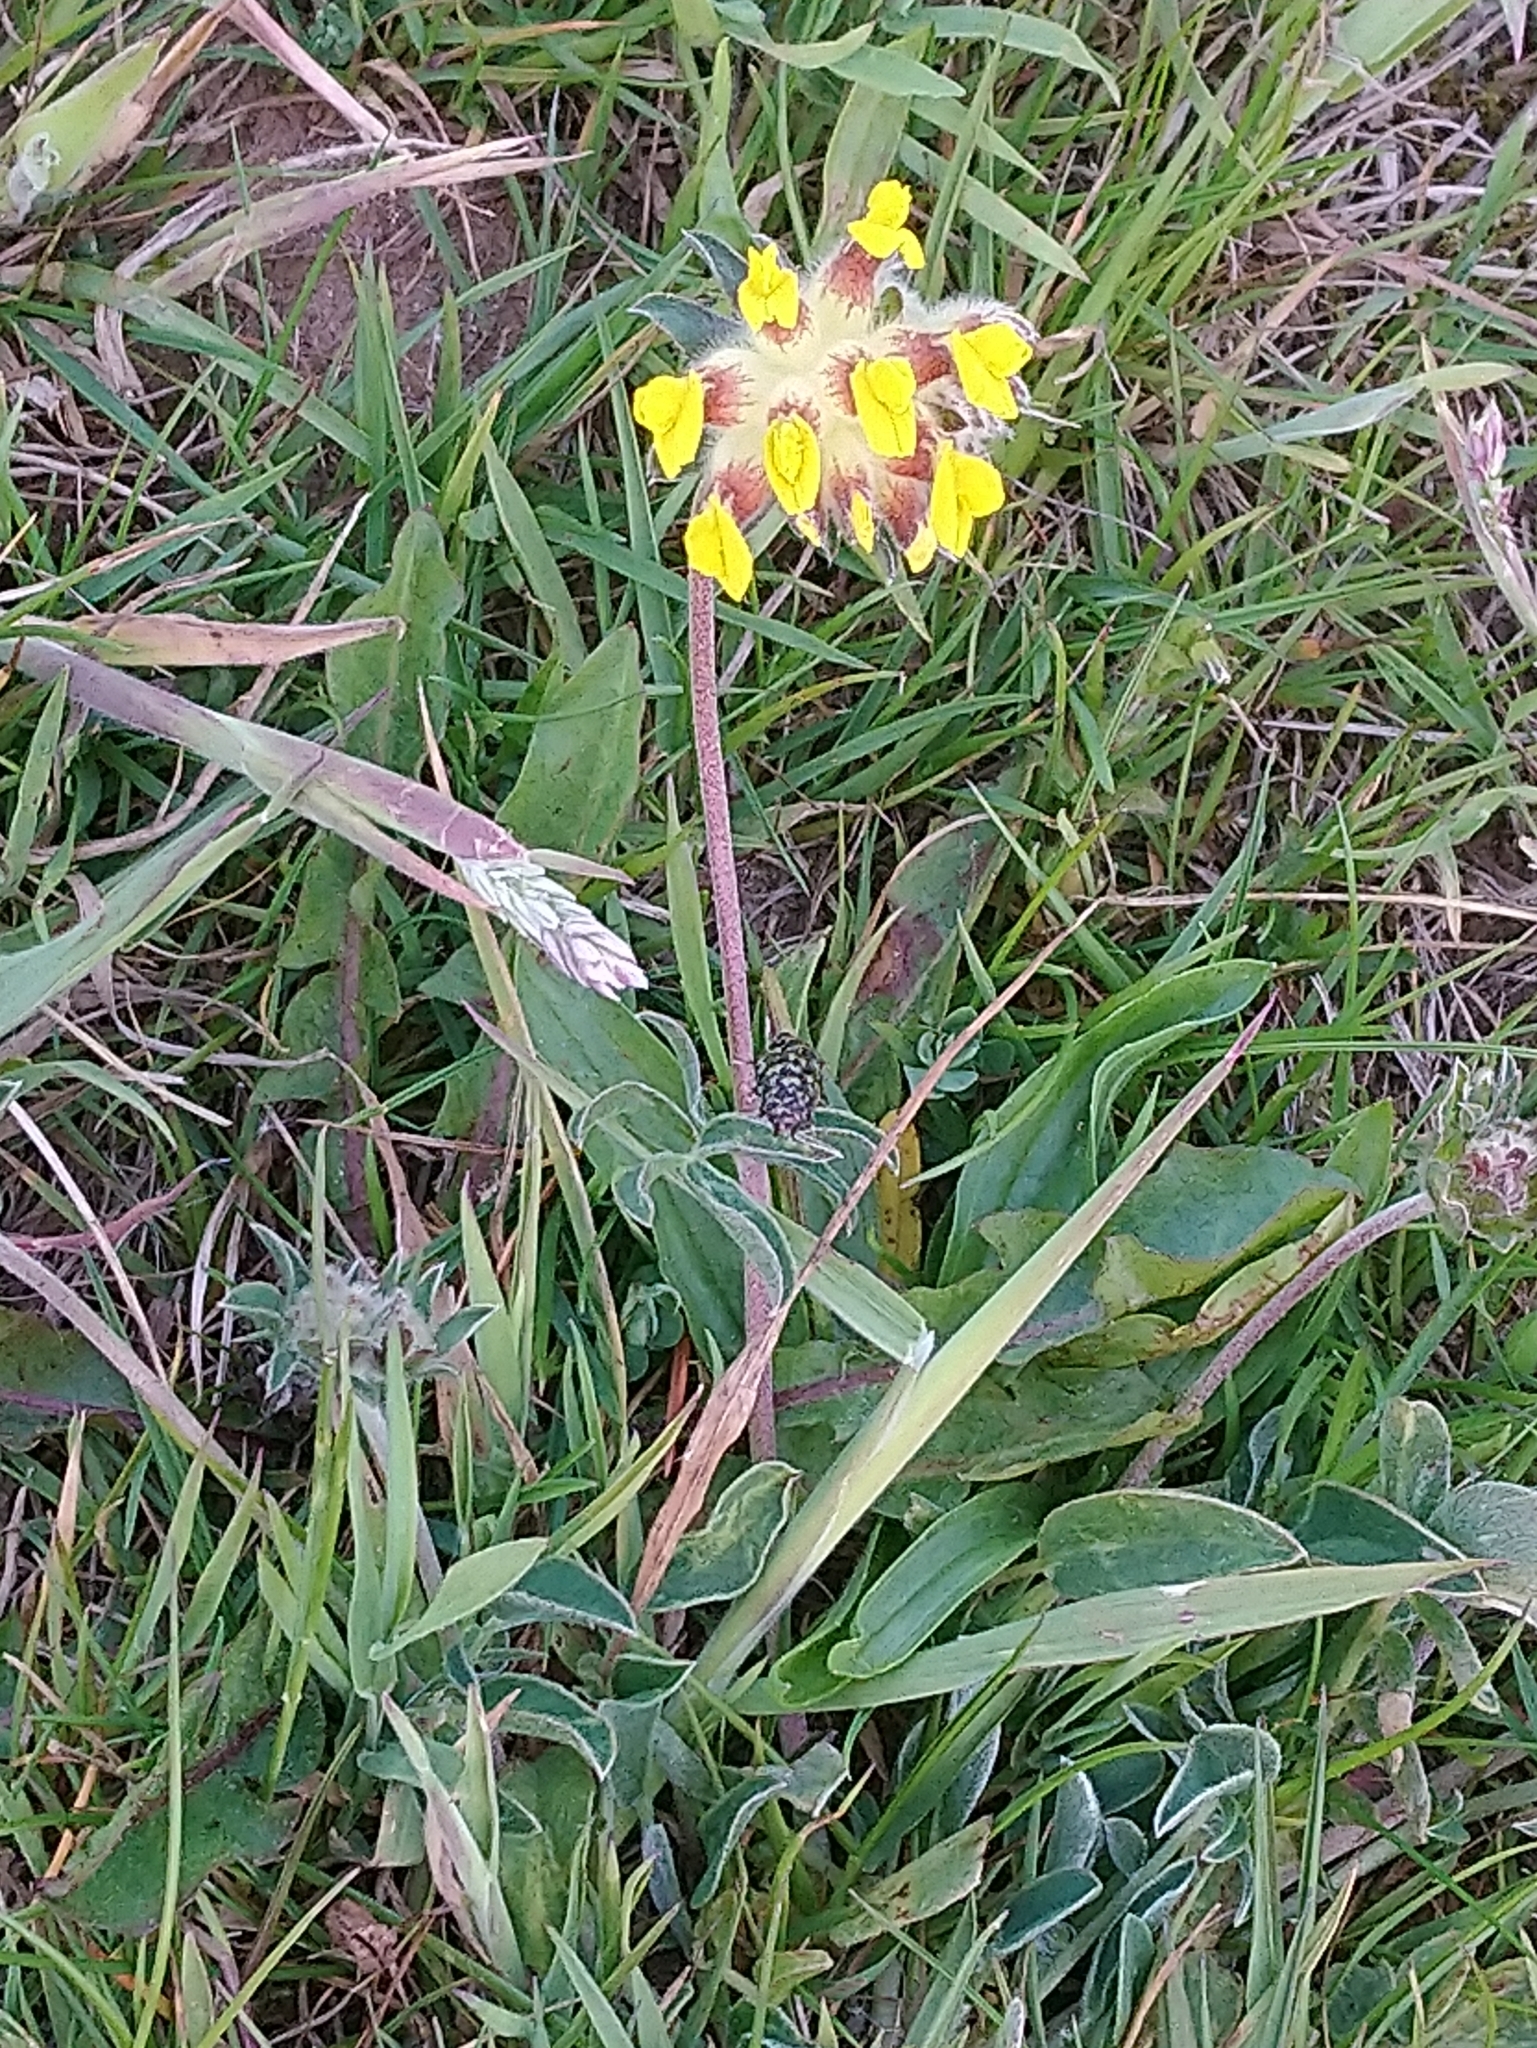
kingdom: Plantae
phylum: Tracheophyta
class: Magnoliopsida
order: Fabales
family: Fabaceae
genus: Anthyllis
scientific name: Anthyllis vulneraria
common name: Kidney vetch
